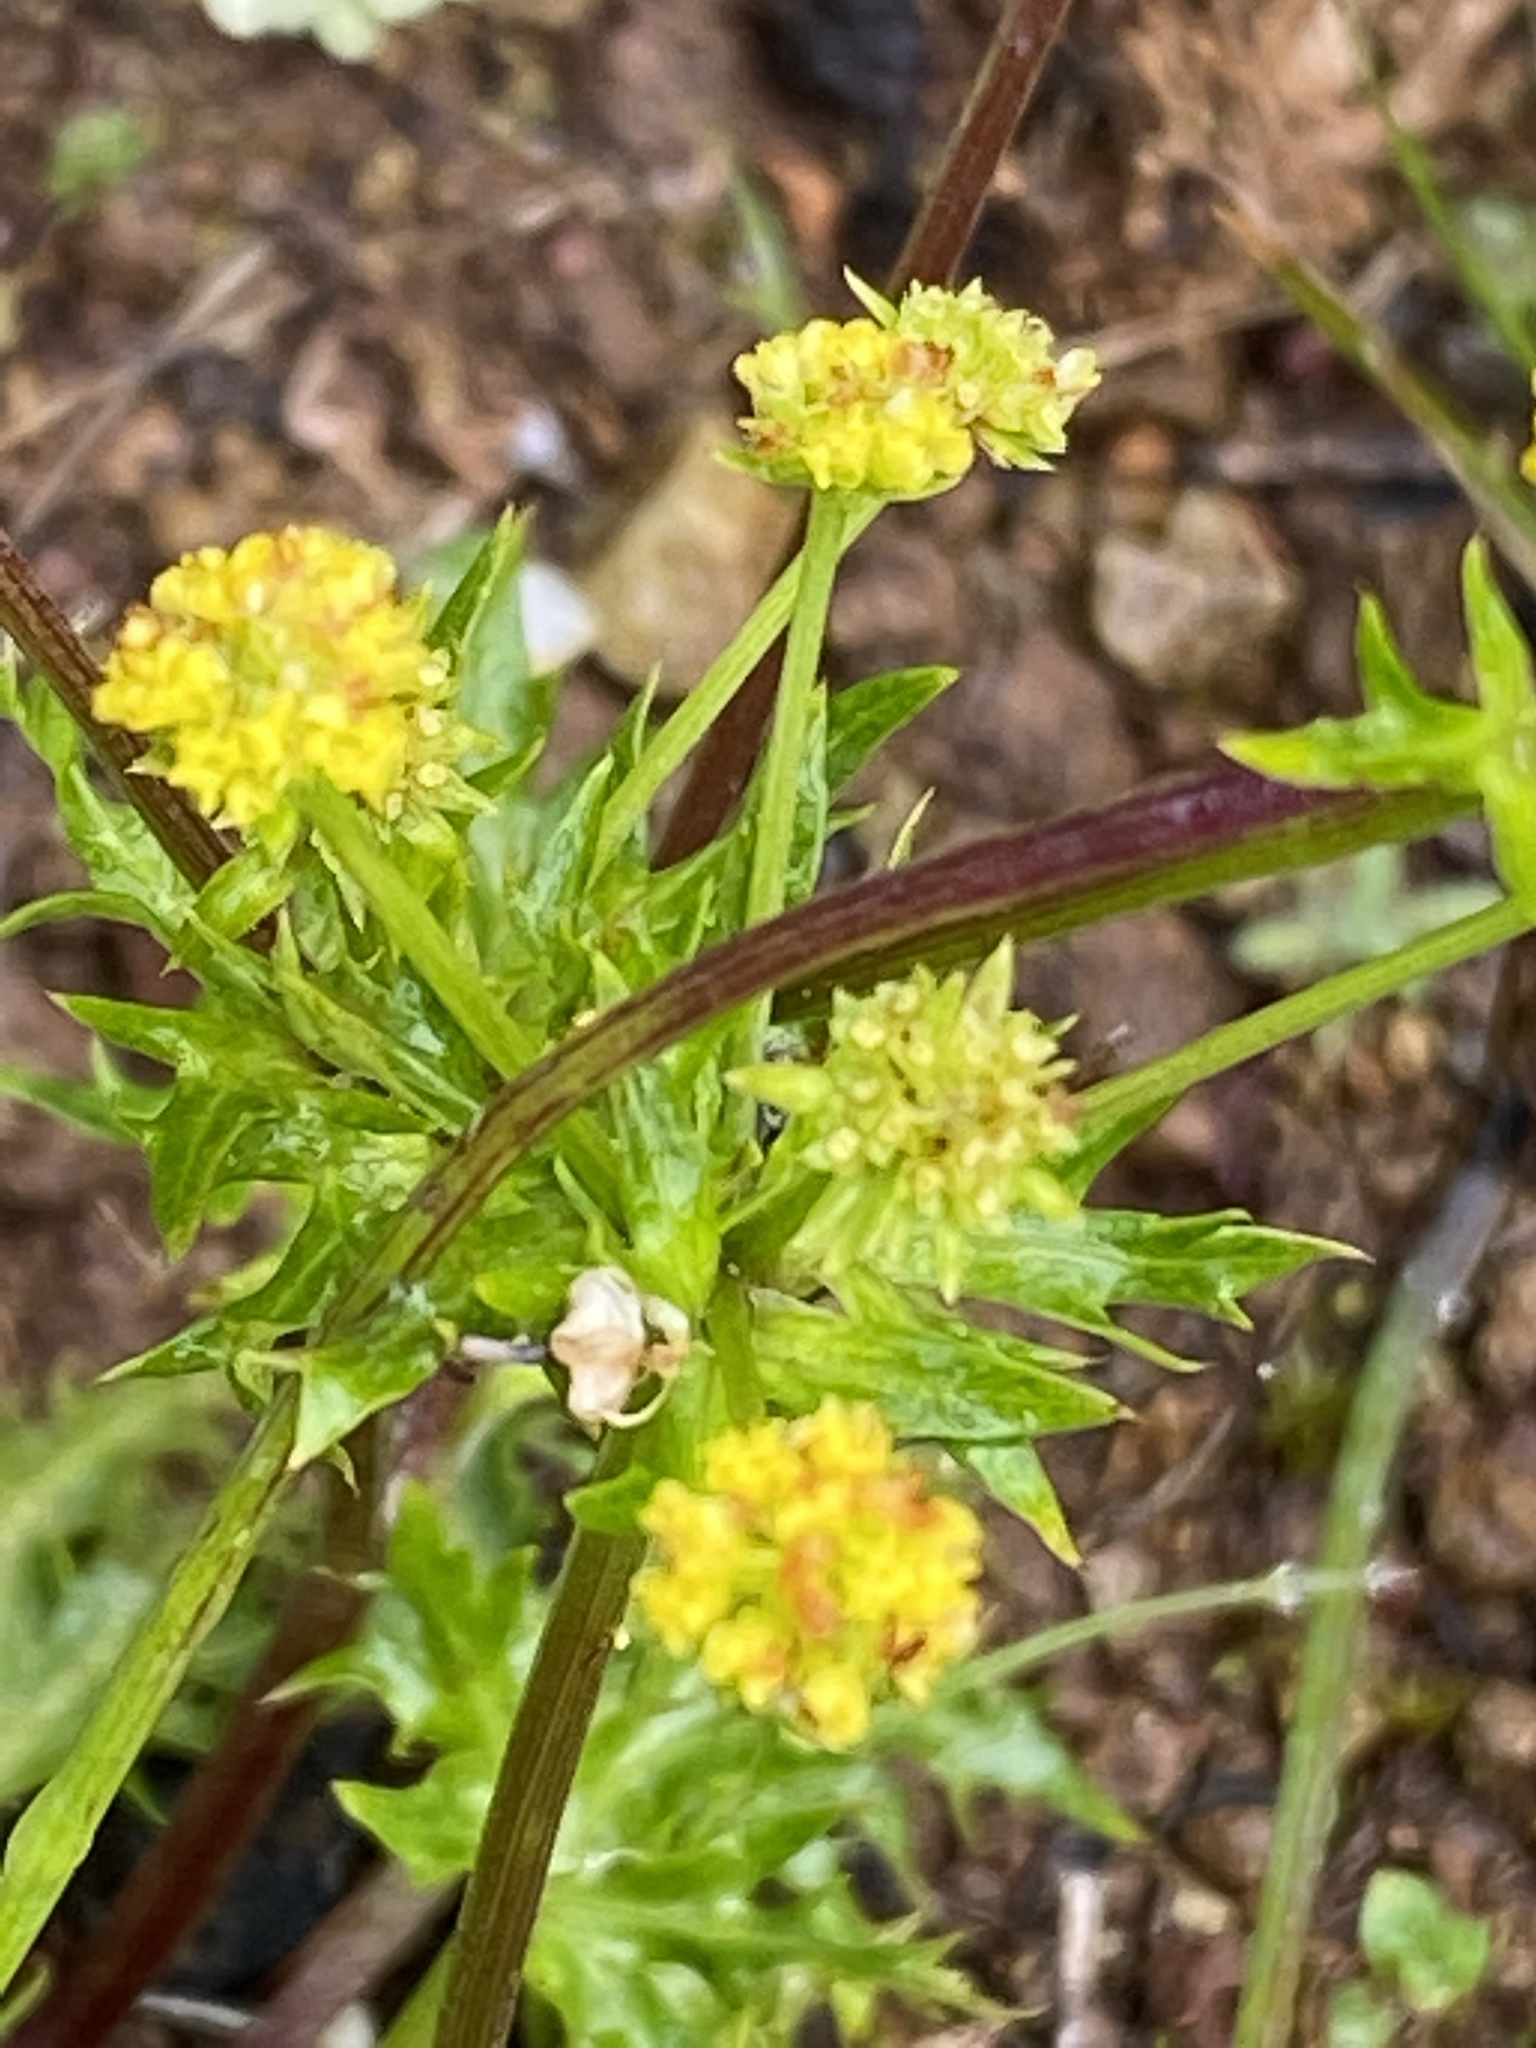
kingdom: Plantae
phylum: Tracheophyta
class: Magnoliopsida
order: Apiales
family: Apiaceae
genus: Sanicula
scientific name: Sanicula laciniata
